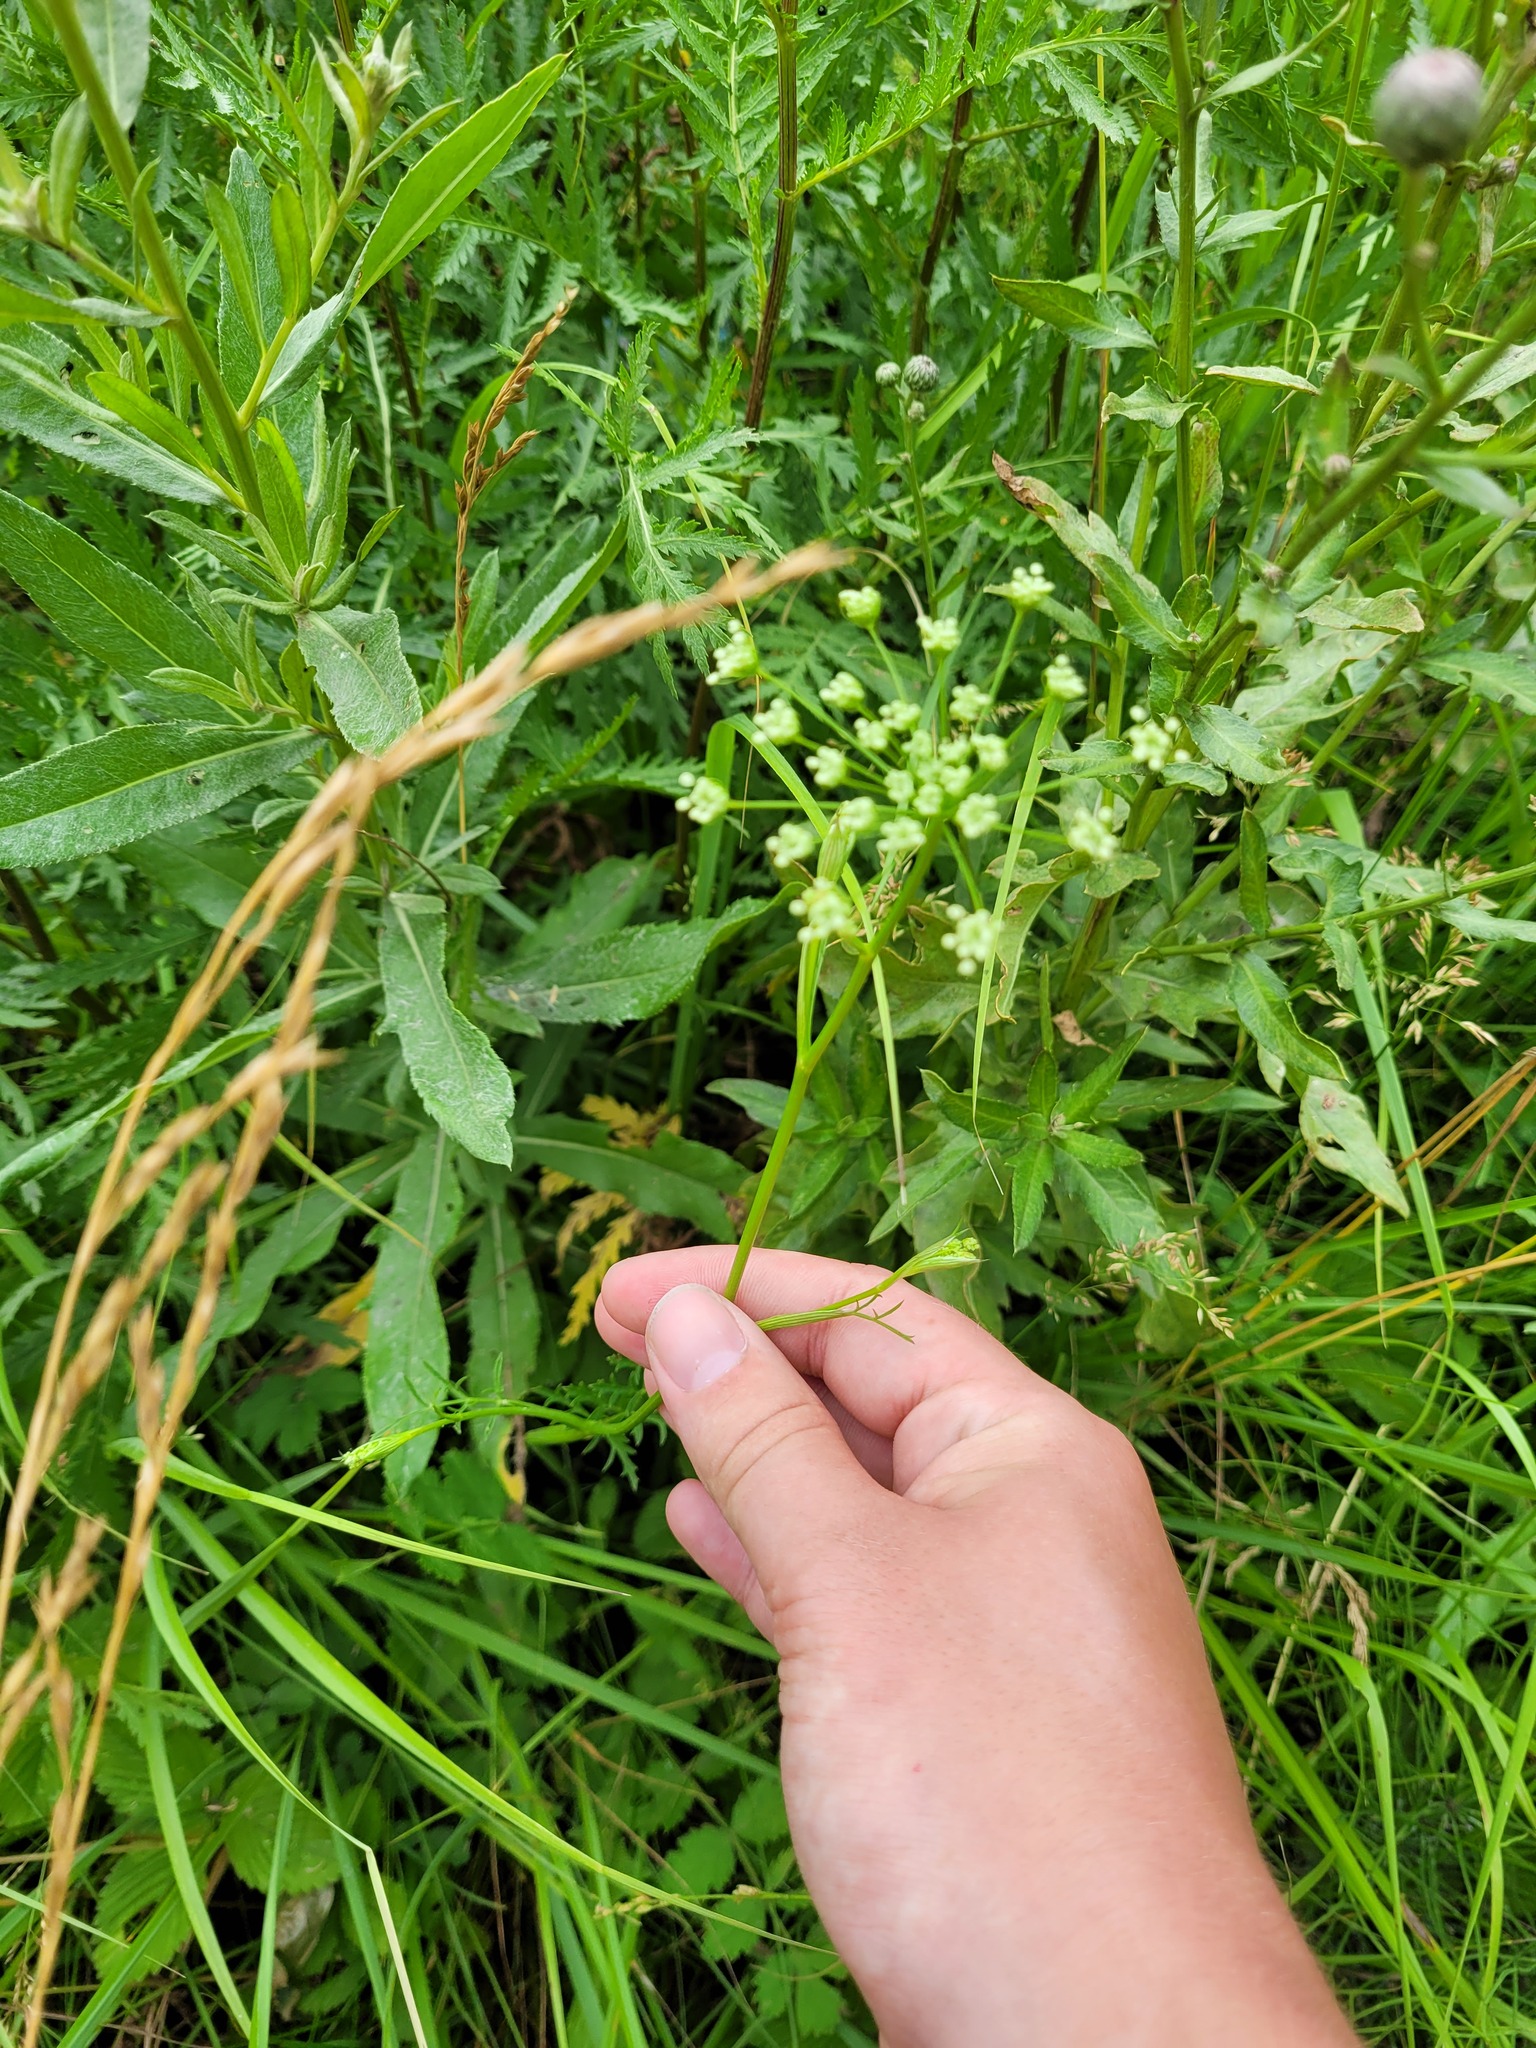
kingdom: Plantae
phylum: Tracheophyta
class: Magnoliopsida
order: Apiales
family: Apiaceae
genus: Pimpinella
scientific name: Pimpinella saxifraga
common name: Burnet-saxifrage
